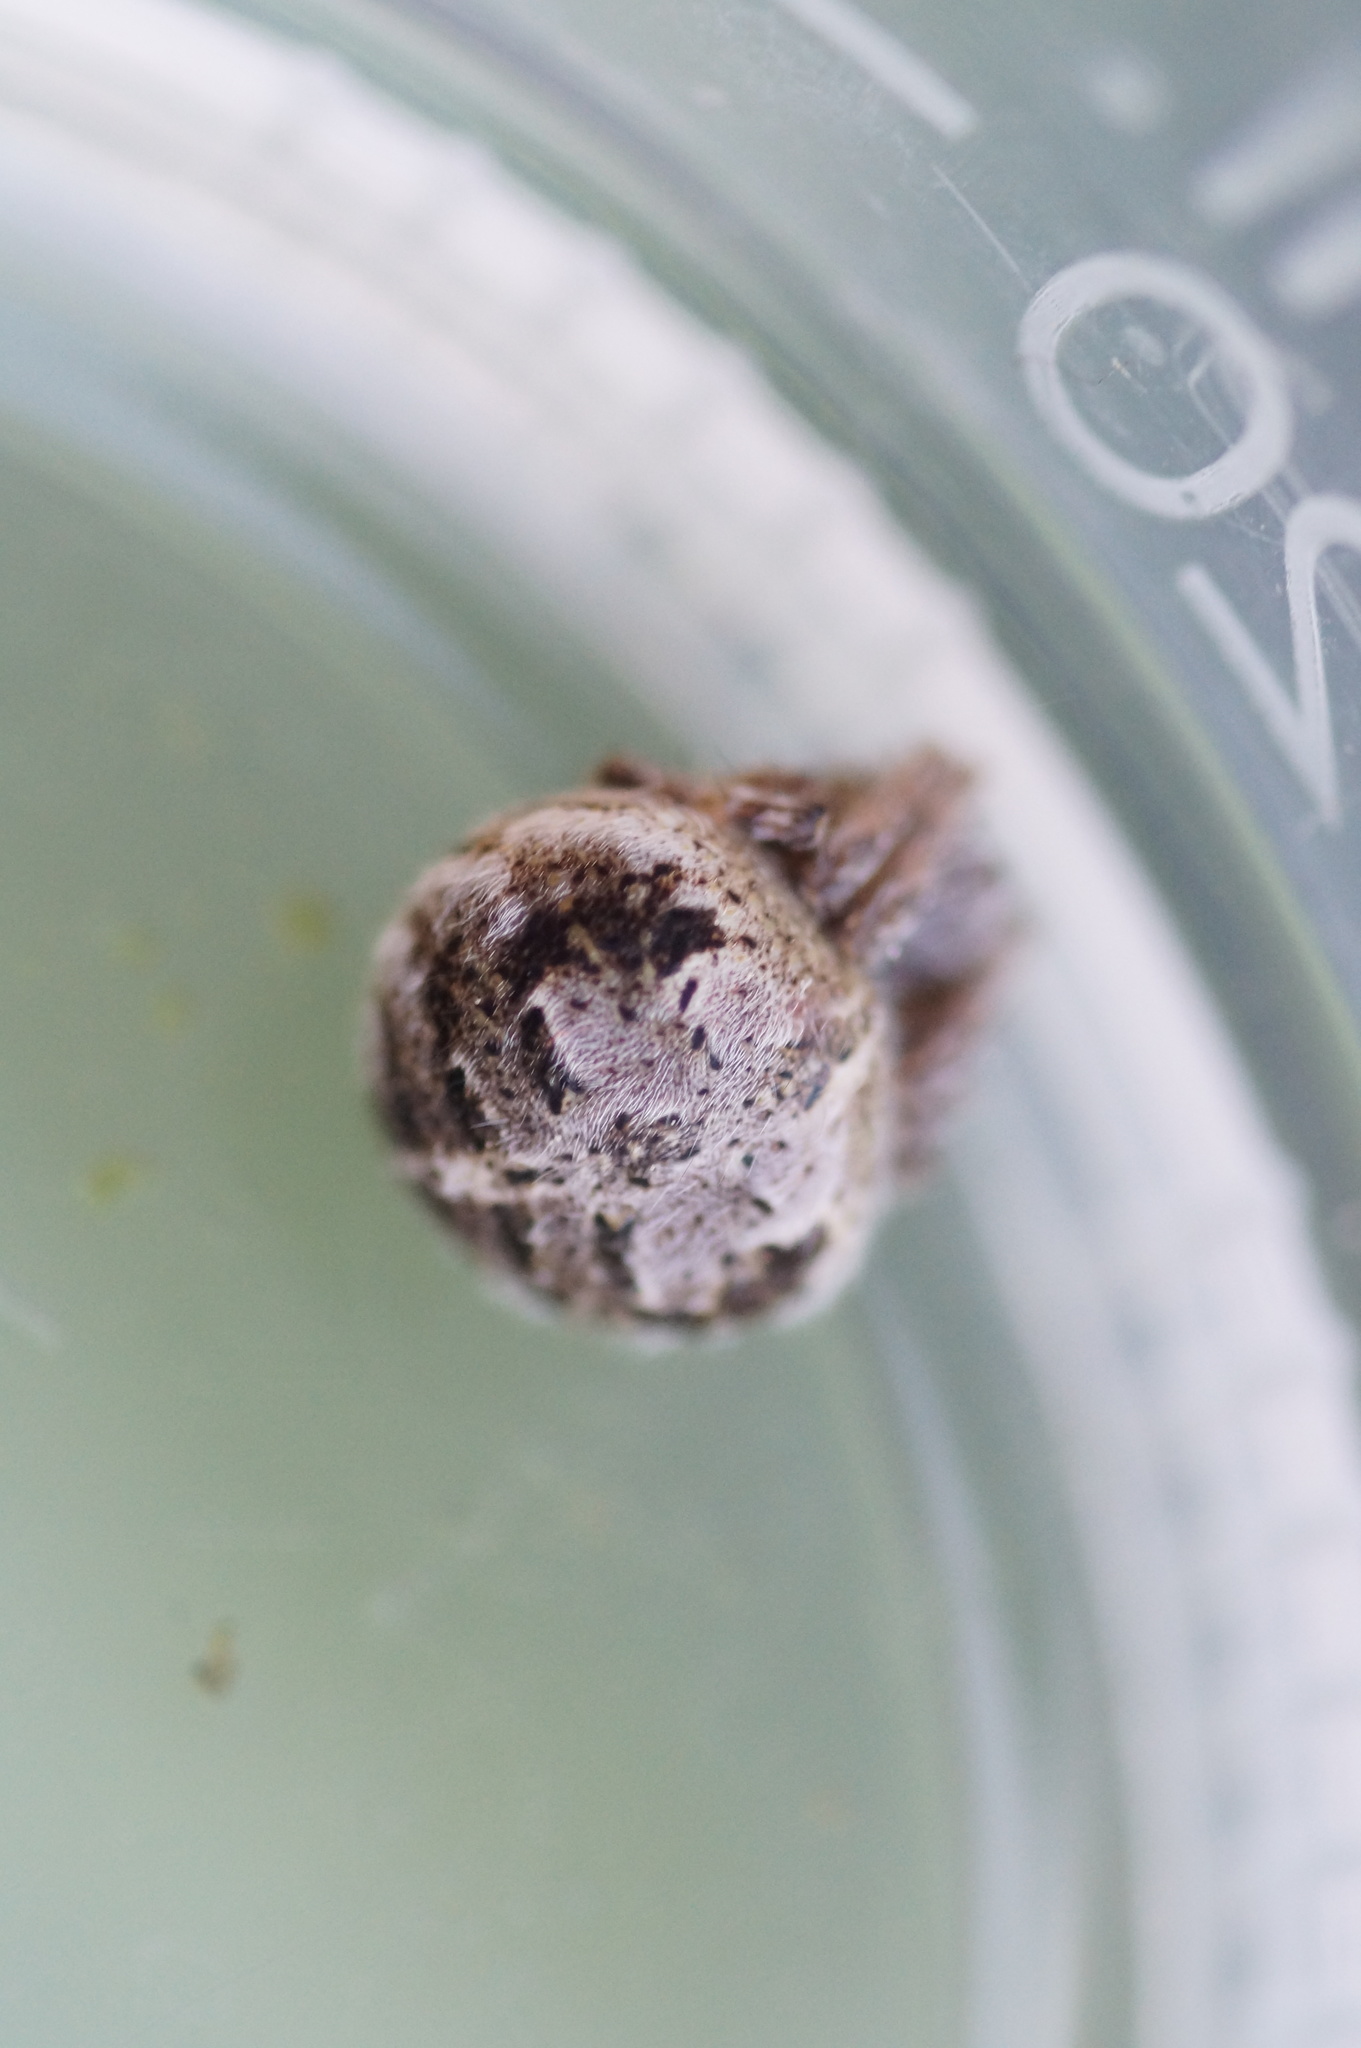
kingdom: Animalia
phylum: Arthropoda
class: Arachnida
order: Araneae
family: Araneidae
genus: Agalenatea
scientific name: Agalenatea redii
